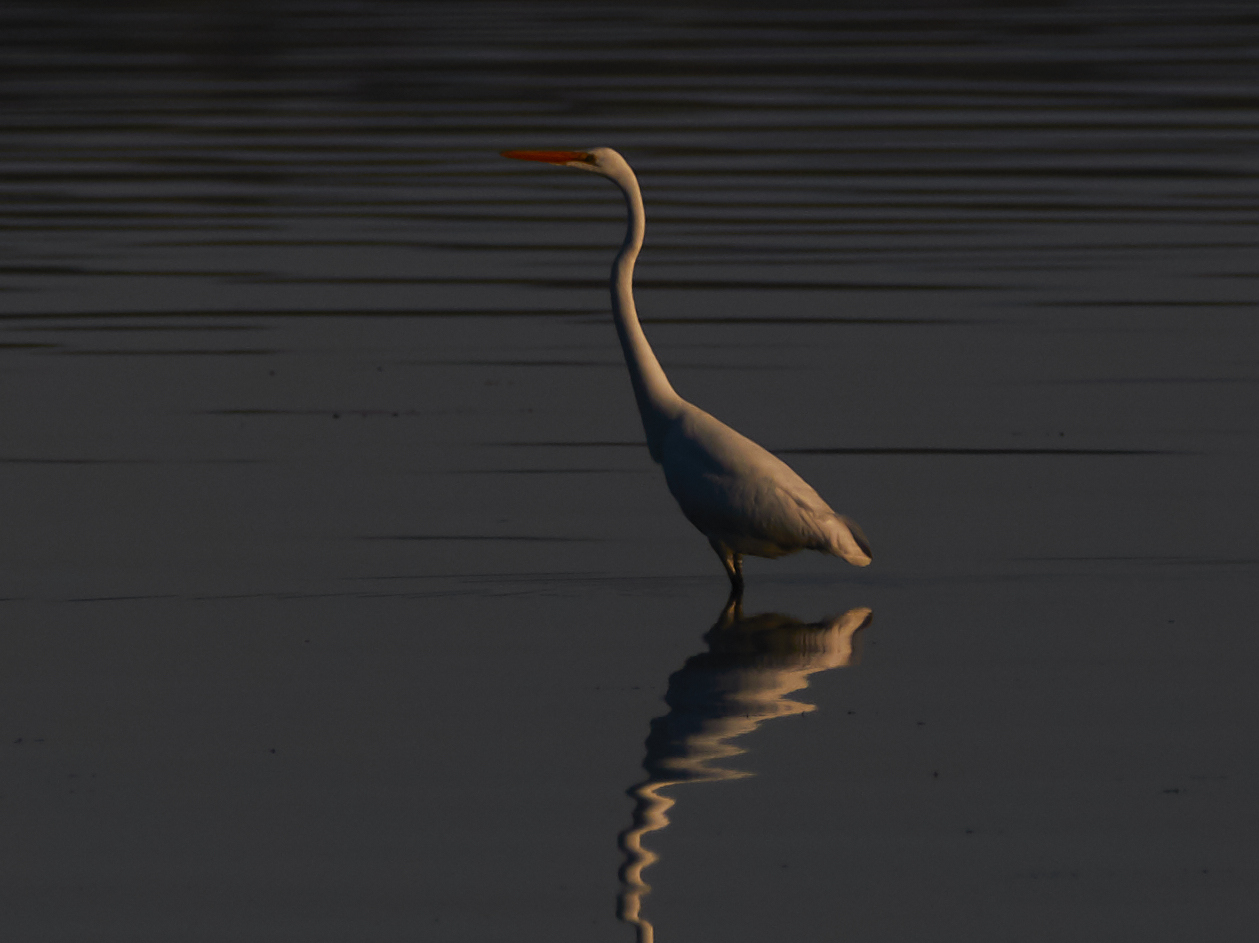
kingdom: Animalia
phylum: Chordata
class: Aves
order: Pelecaniformes
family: Ardeidae
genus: Ardea
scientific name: Ardea alba
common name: Great egret
